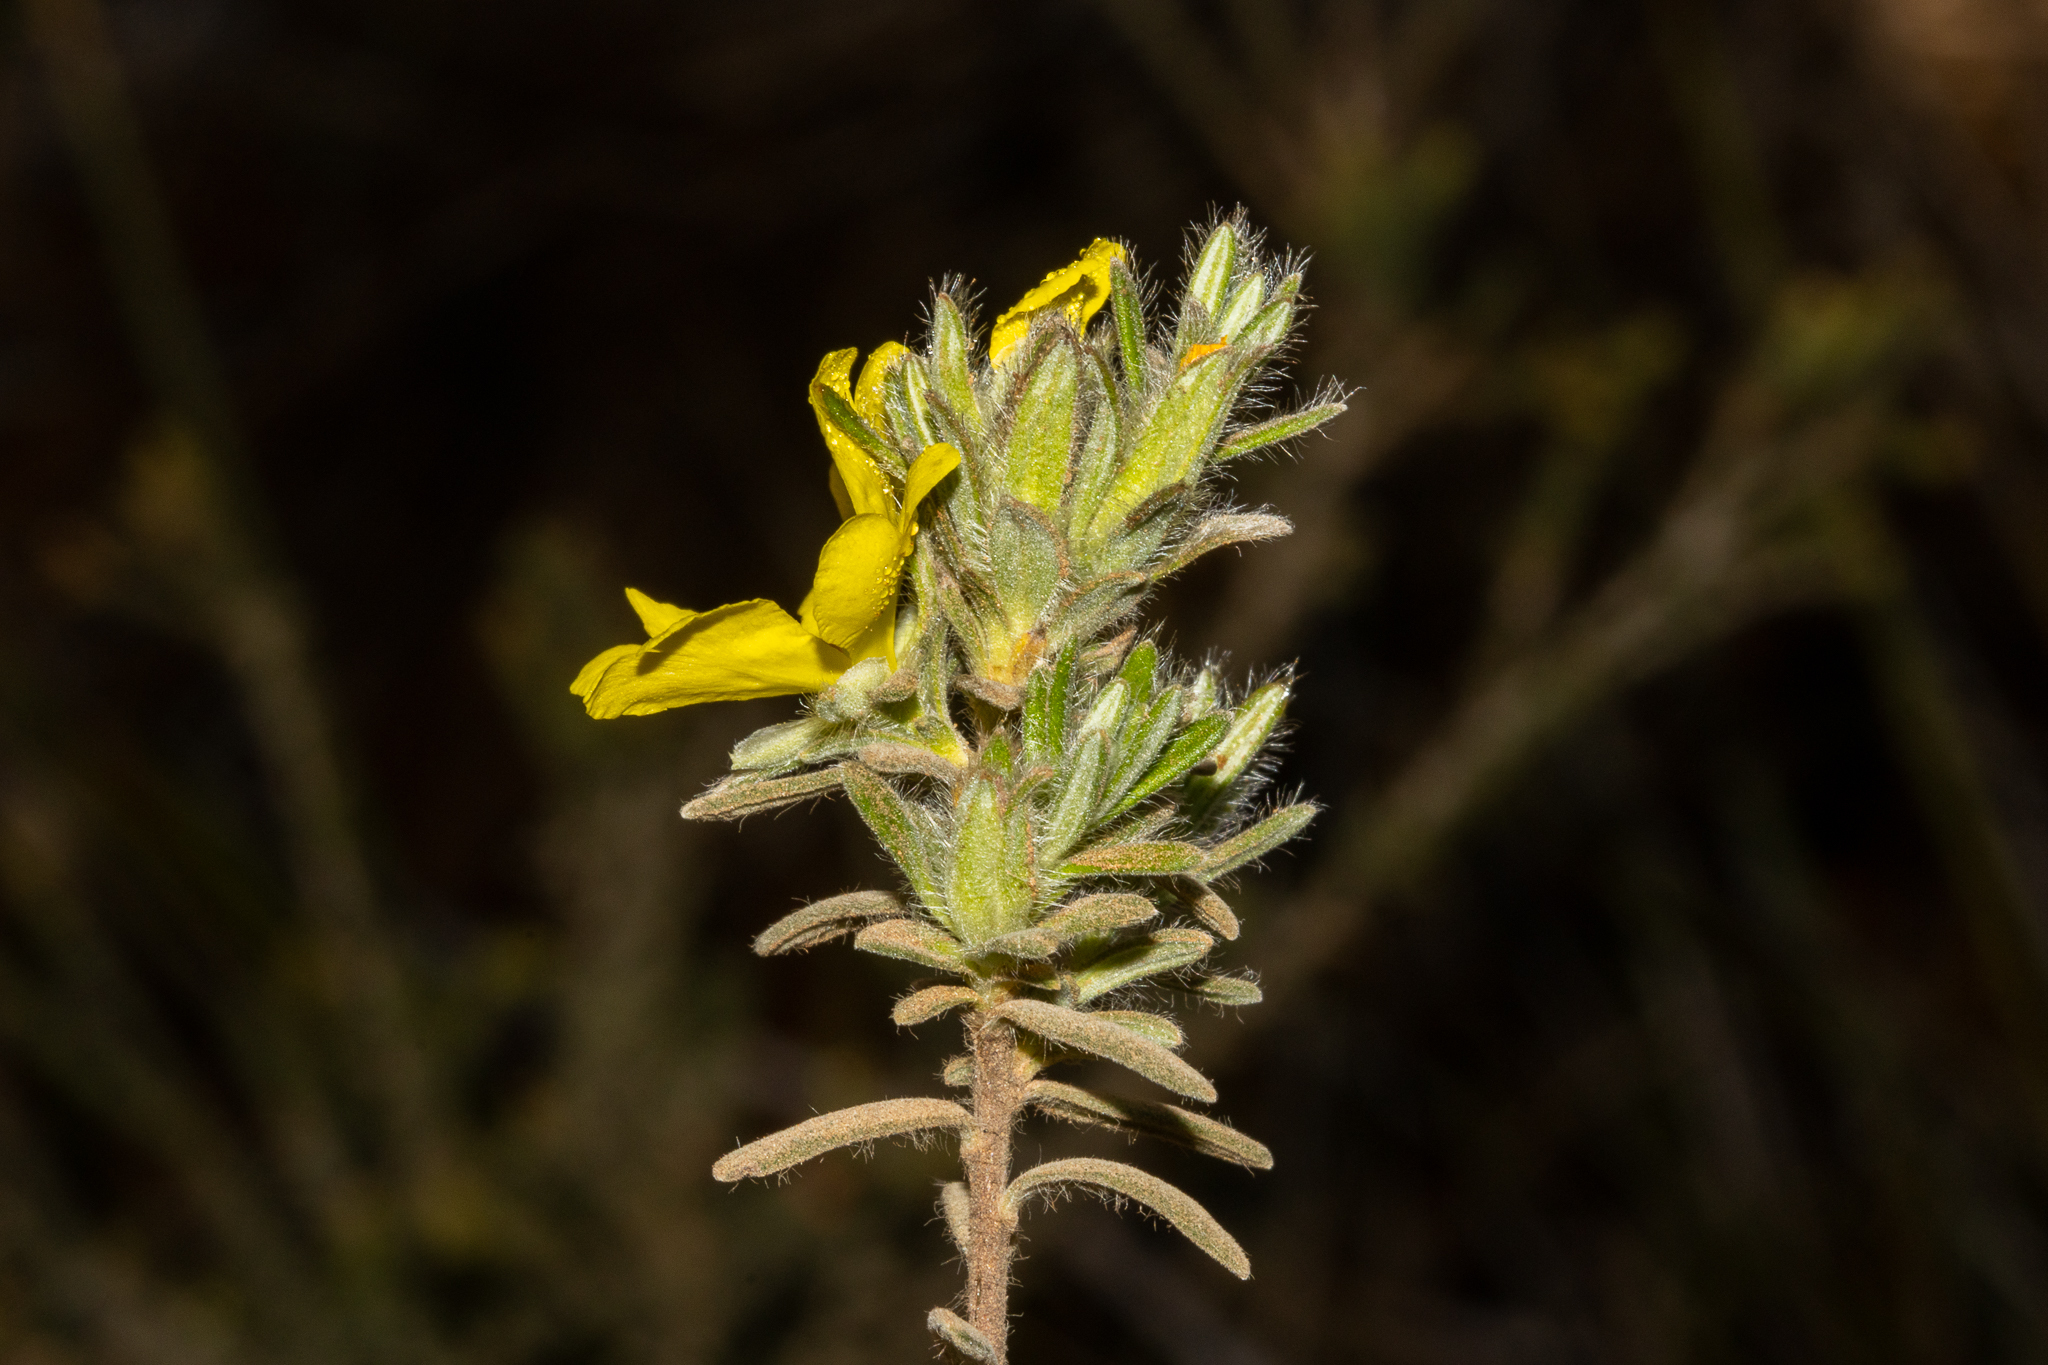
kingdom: Plantae
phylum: Tracheophyta
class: Magnoliopsida
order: Dilleniales
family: Dilleniaceae
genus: Hibbertia
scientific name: Hibbertia crinita
